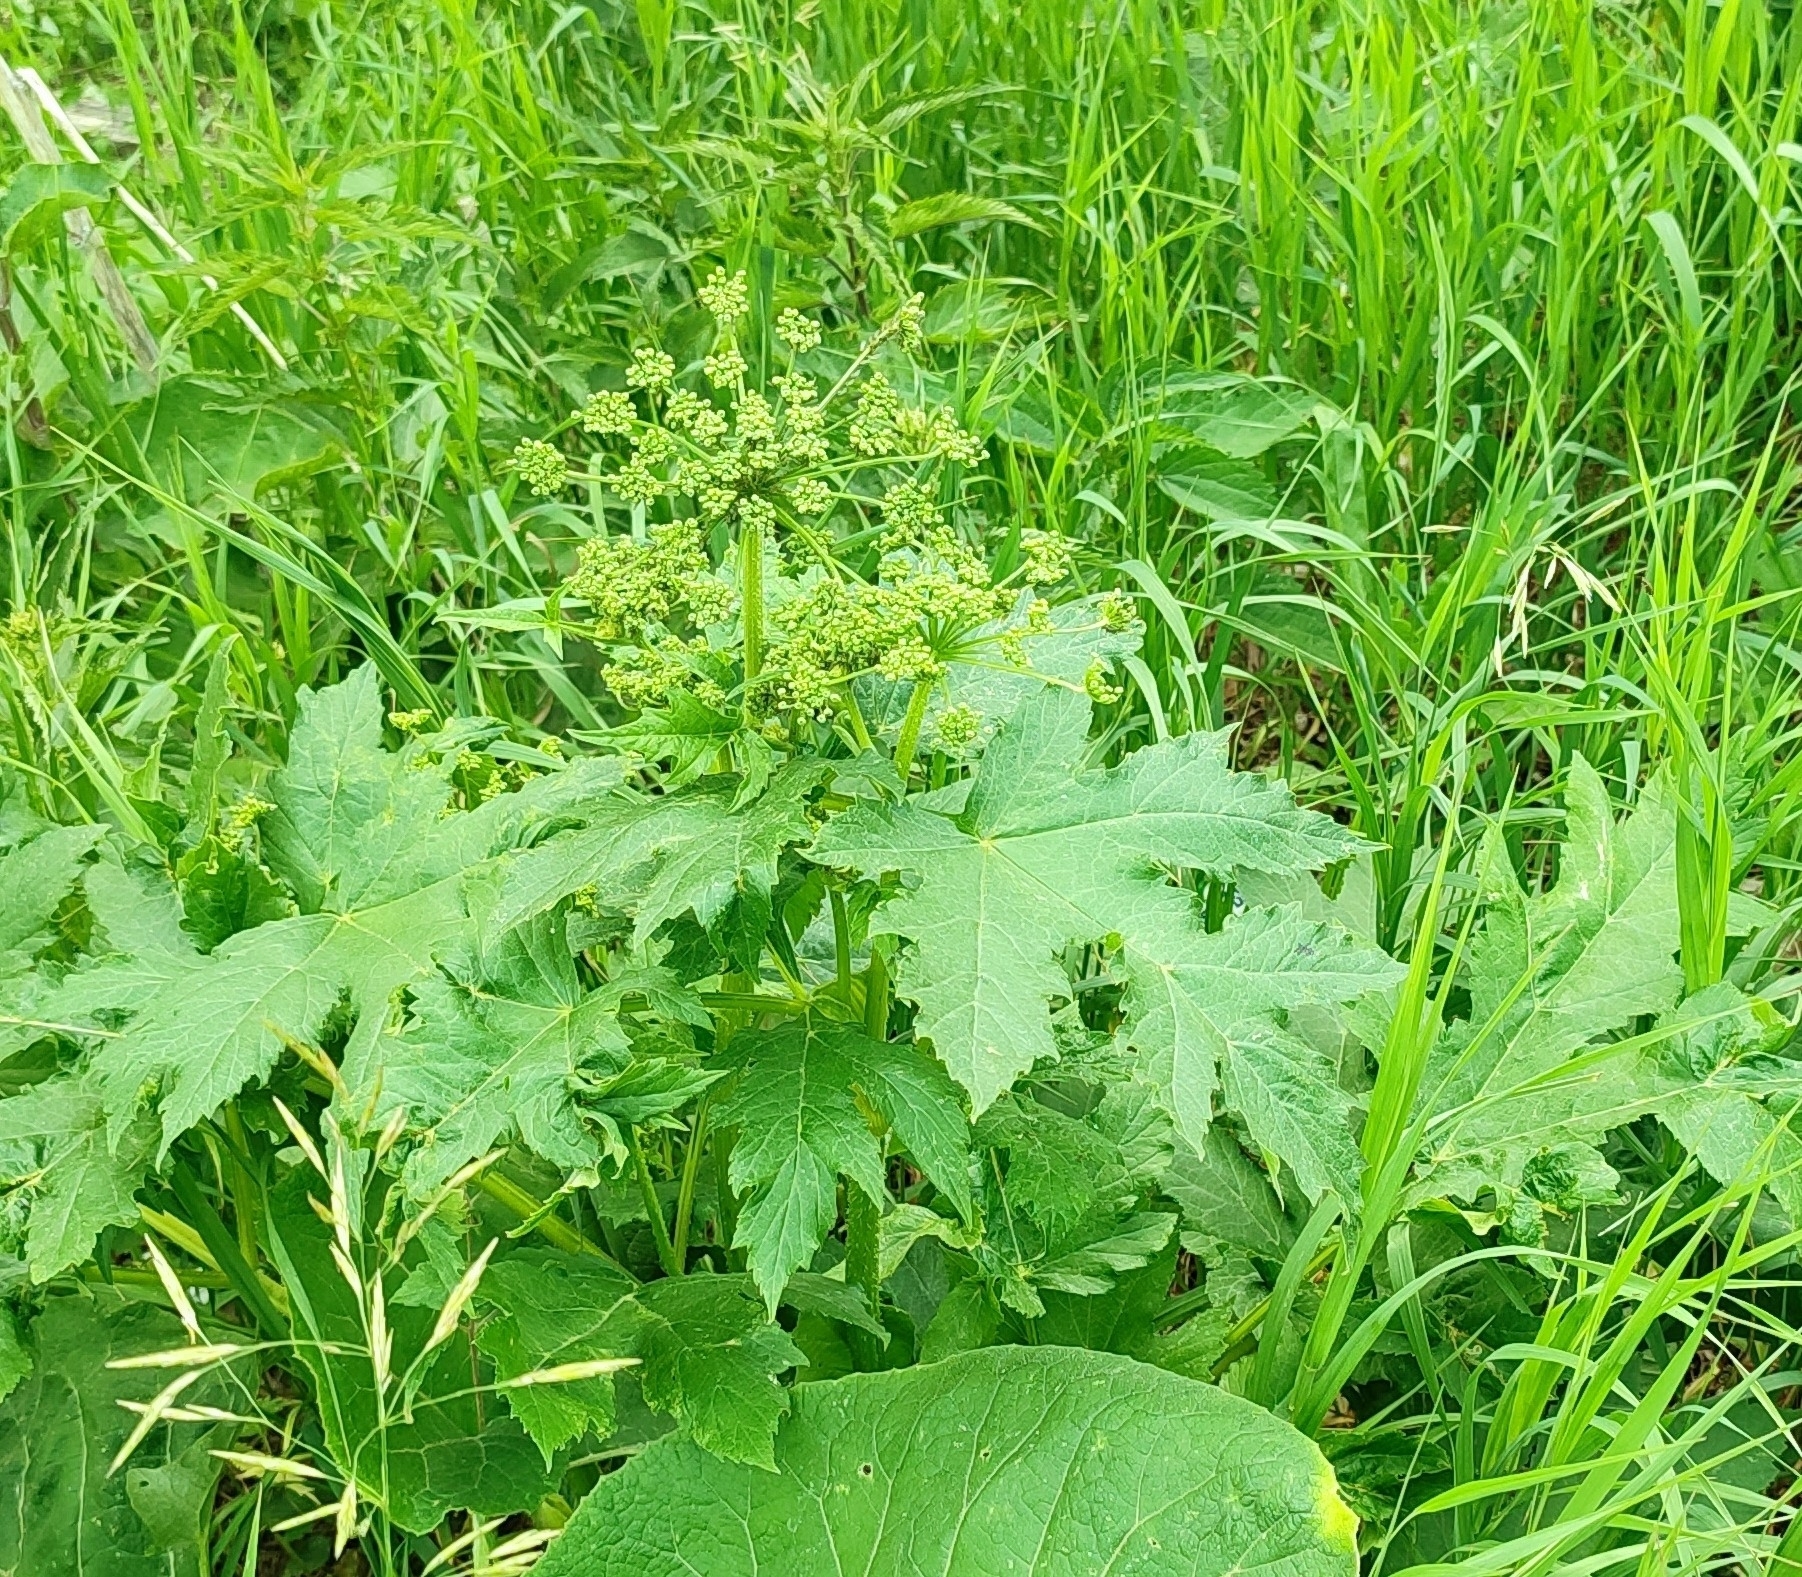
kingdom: Plantae
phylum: Tracheophyta
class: Magnoliopsida
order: Apiales
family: Apiaceae
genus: Heracleum
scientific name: Heracleum sphondylium
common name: Hogweed
